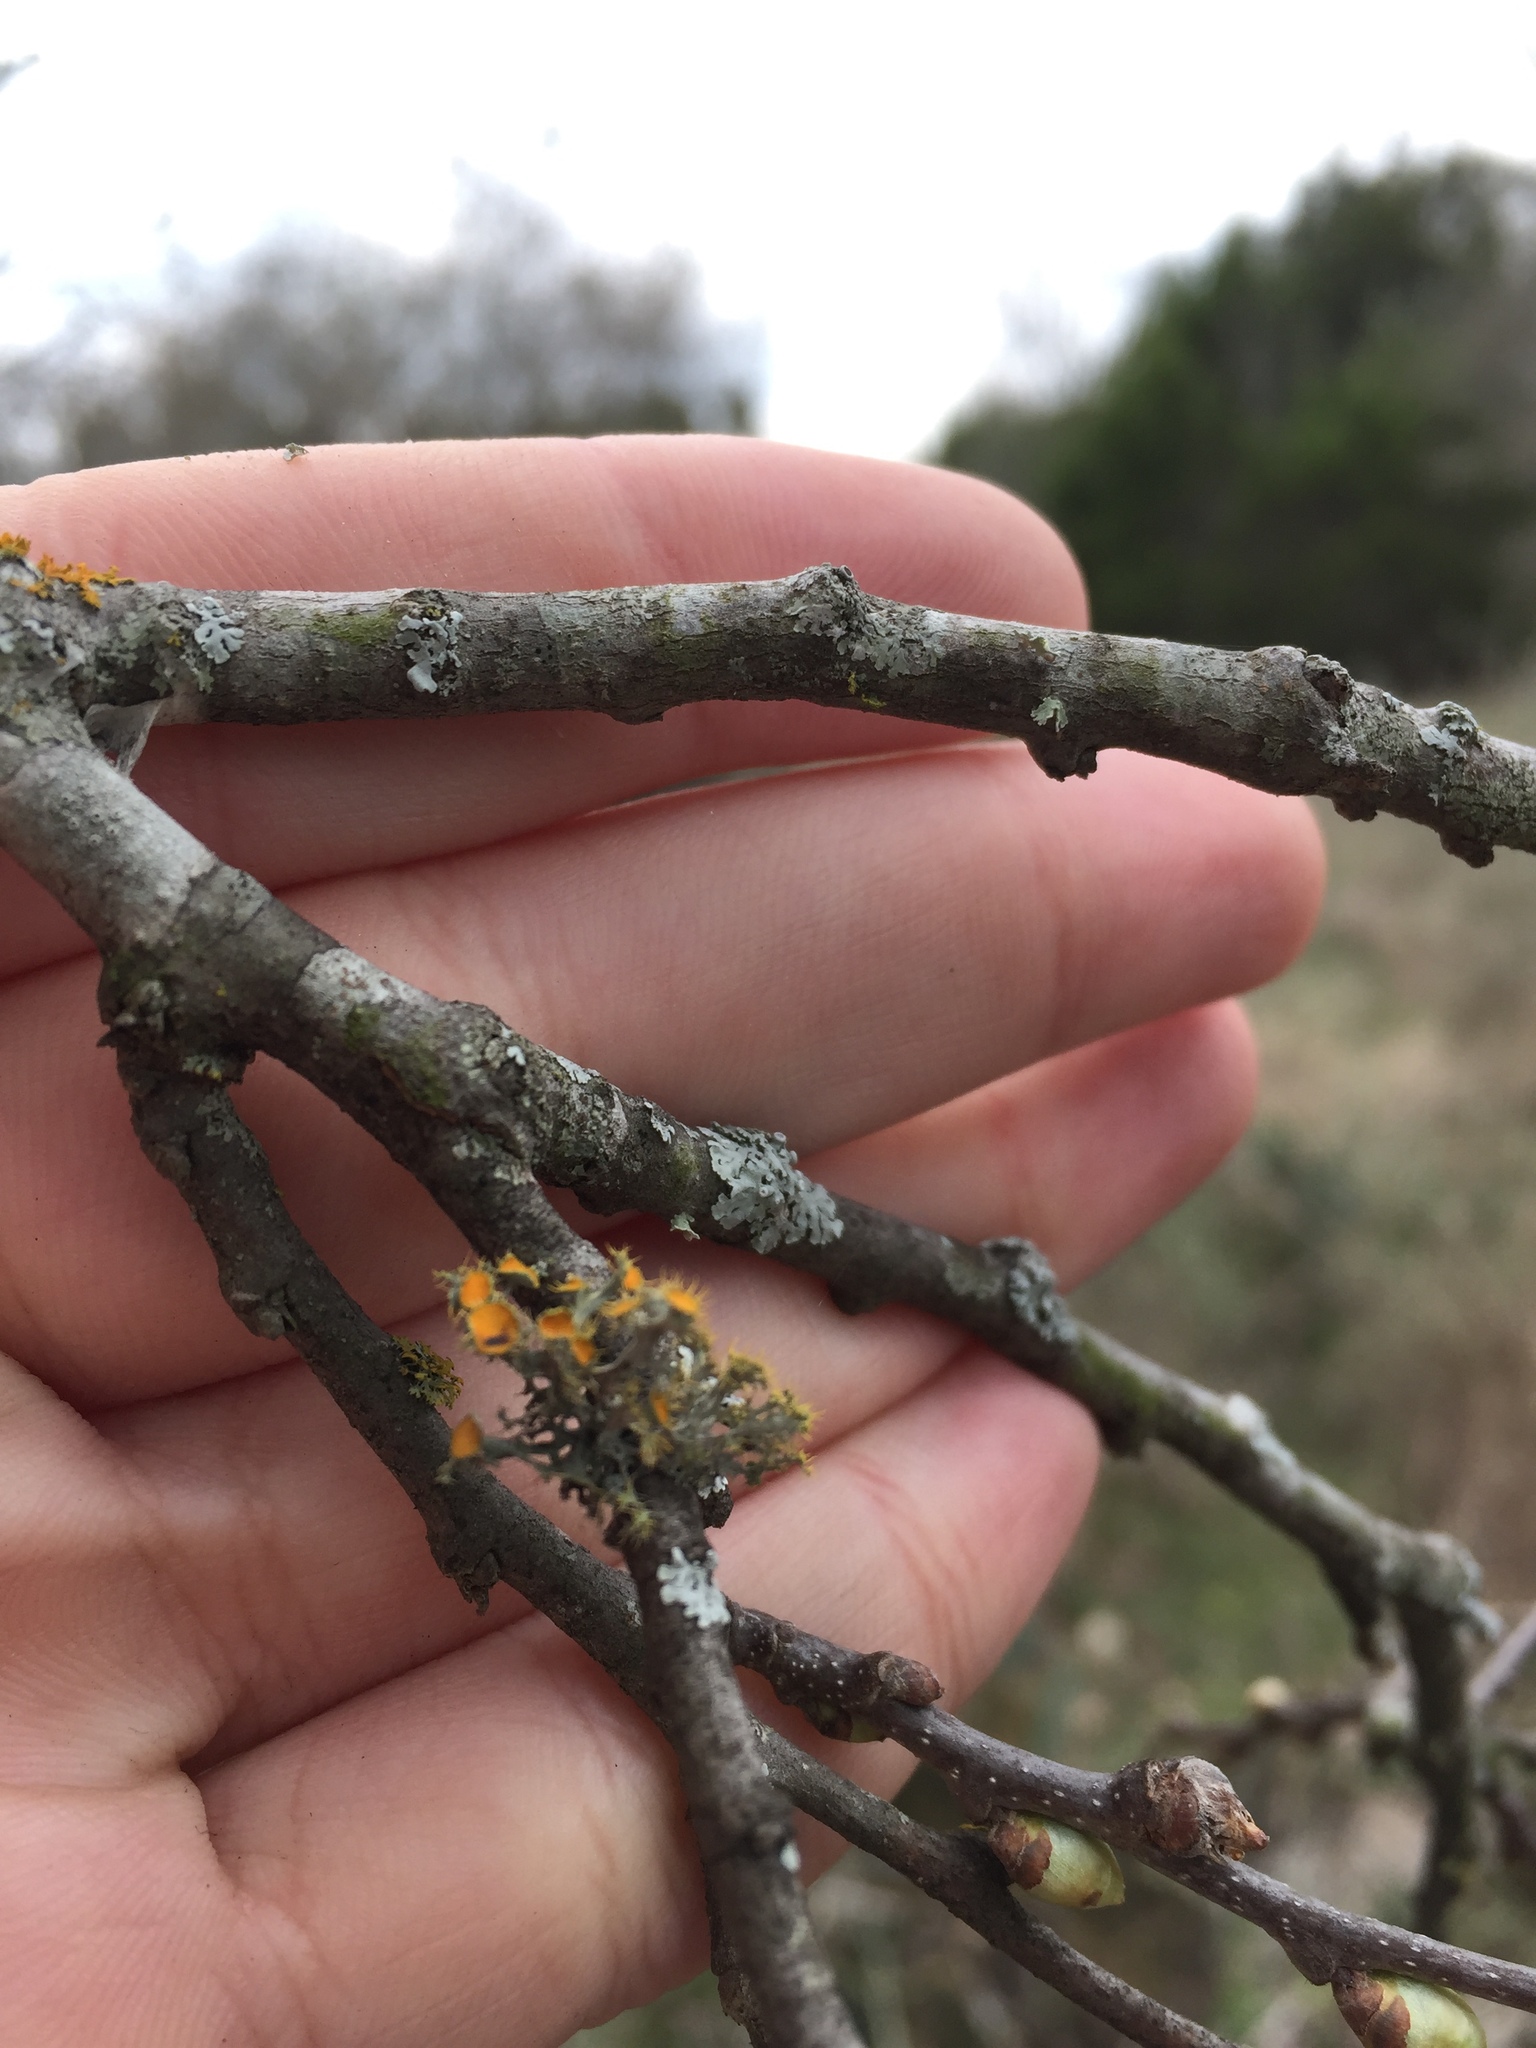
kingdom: Fungi
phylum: Ascomycota
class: Lecanoromycetes
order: Teloschistales
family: Teloschistaceae
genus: Niorma
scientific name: Niorma chrysophthalma
